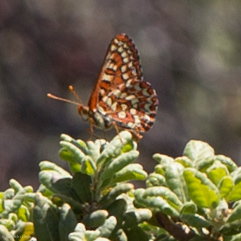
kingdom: Animalia
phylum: Arthropoda
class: Insecta
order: Lepidoptera
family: Nymphalidae
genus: Occidryas
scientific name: Occidryas editha
